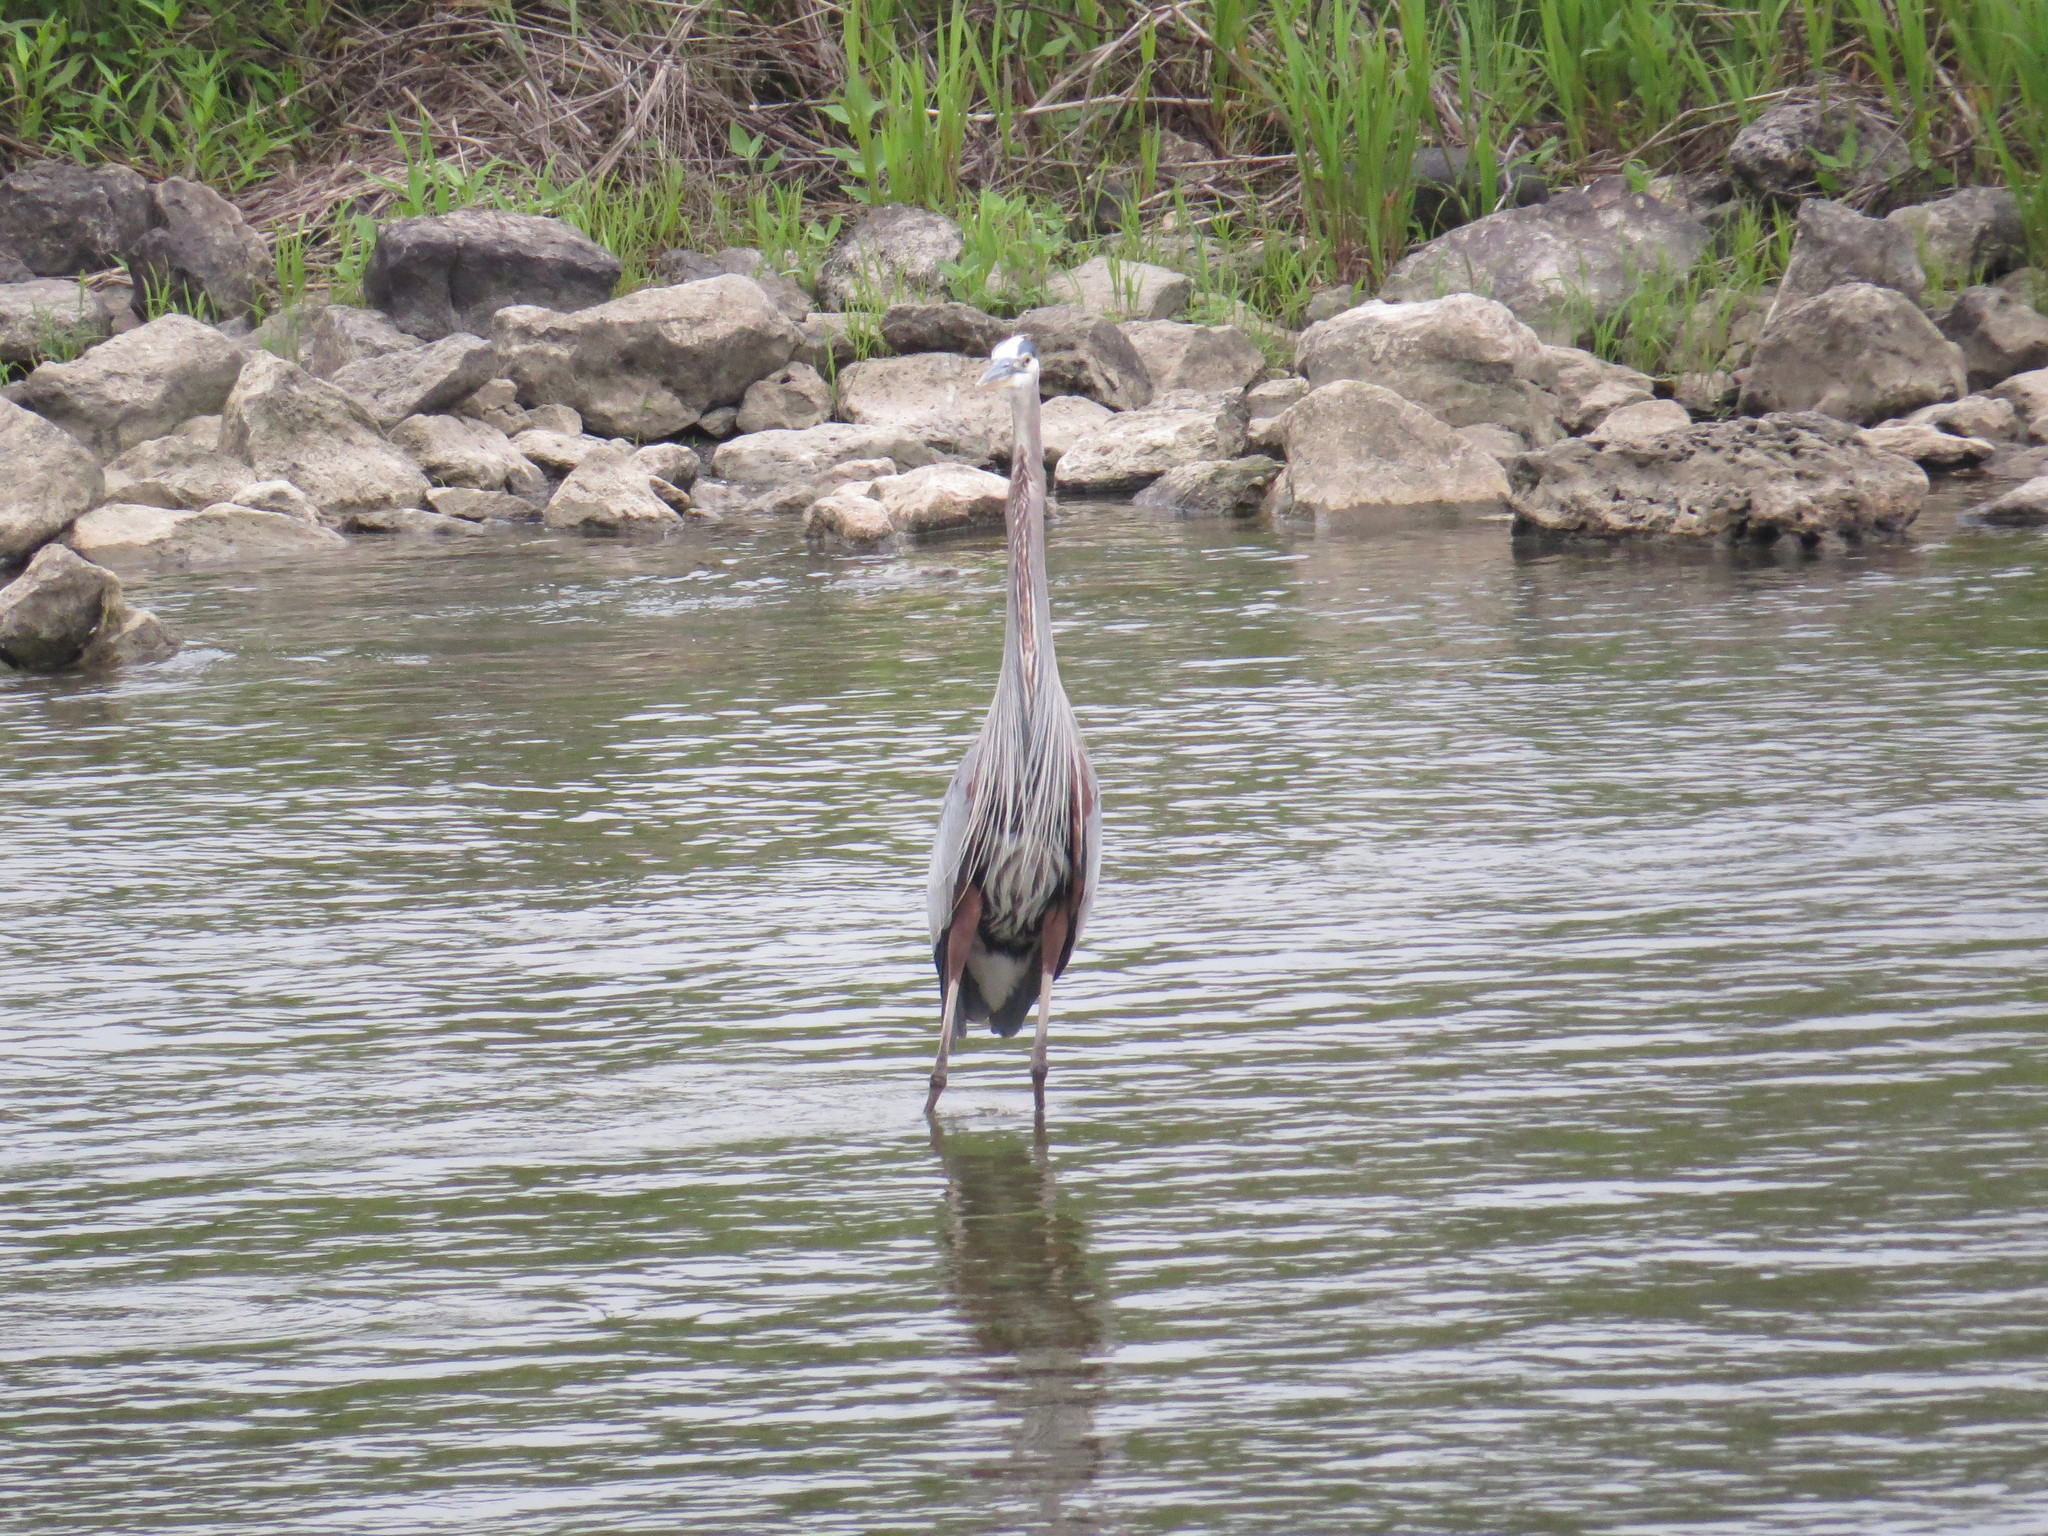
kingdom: Animalia
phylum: Chordata
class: Aves
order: Pelecaniformes
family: Ardeidae
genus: Ardea
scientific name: Ardea herodias
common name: Great blue heron
